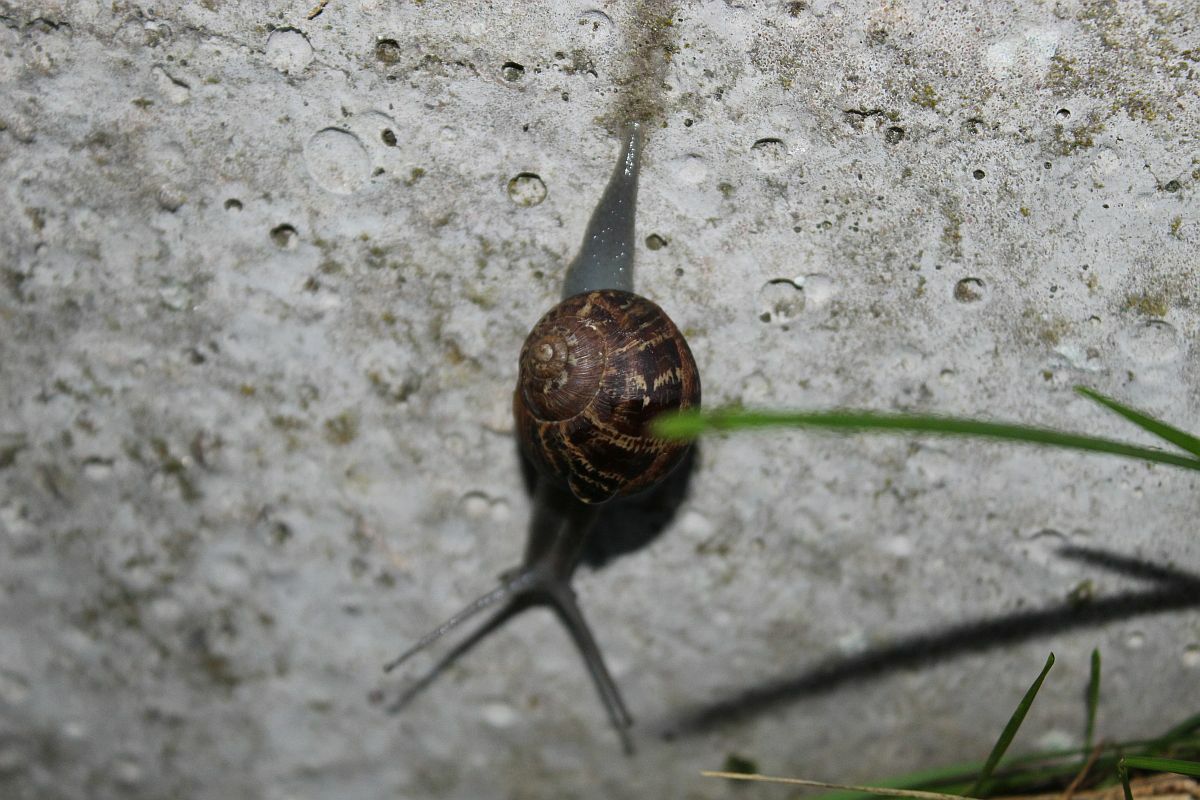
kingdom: Animalia
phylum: Mollusca
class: Gastropoda
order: Stylommatophora
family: Helicidae
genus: Cornu
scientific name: Cornu aspersum
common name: Brown garden snail
